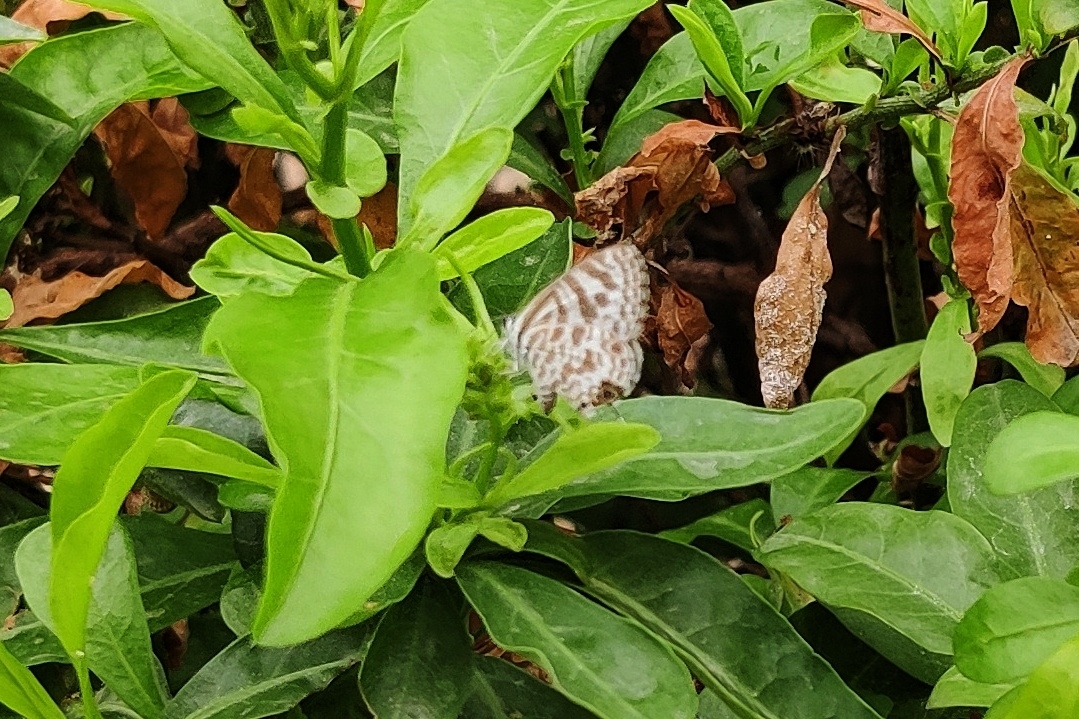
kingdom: Animalia
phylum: Arthropoda
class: Insecta
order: Lepidoptera
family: Lycaenidae
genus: Leptotes
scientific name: Leptotes plinius
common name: Zebra blue
